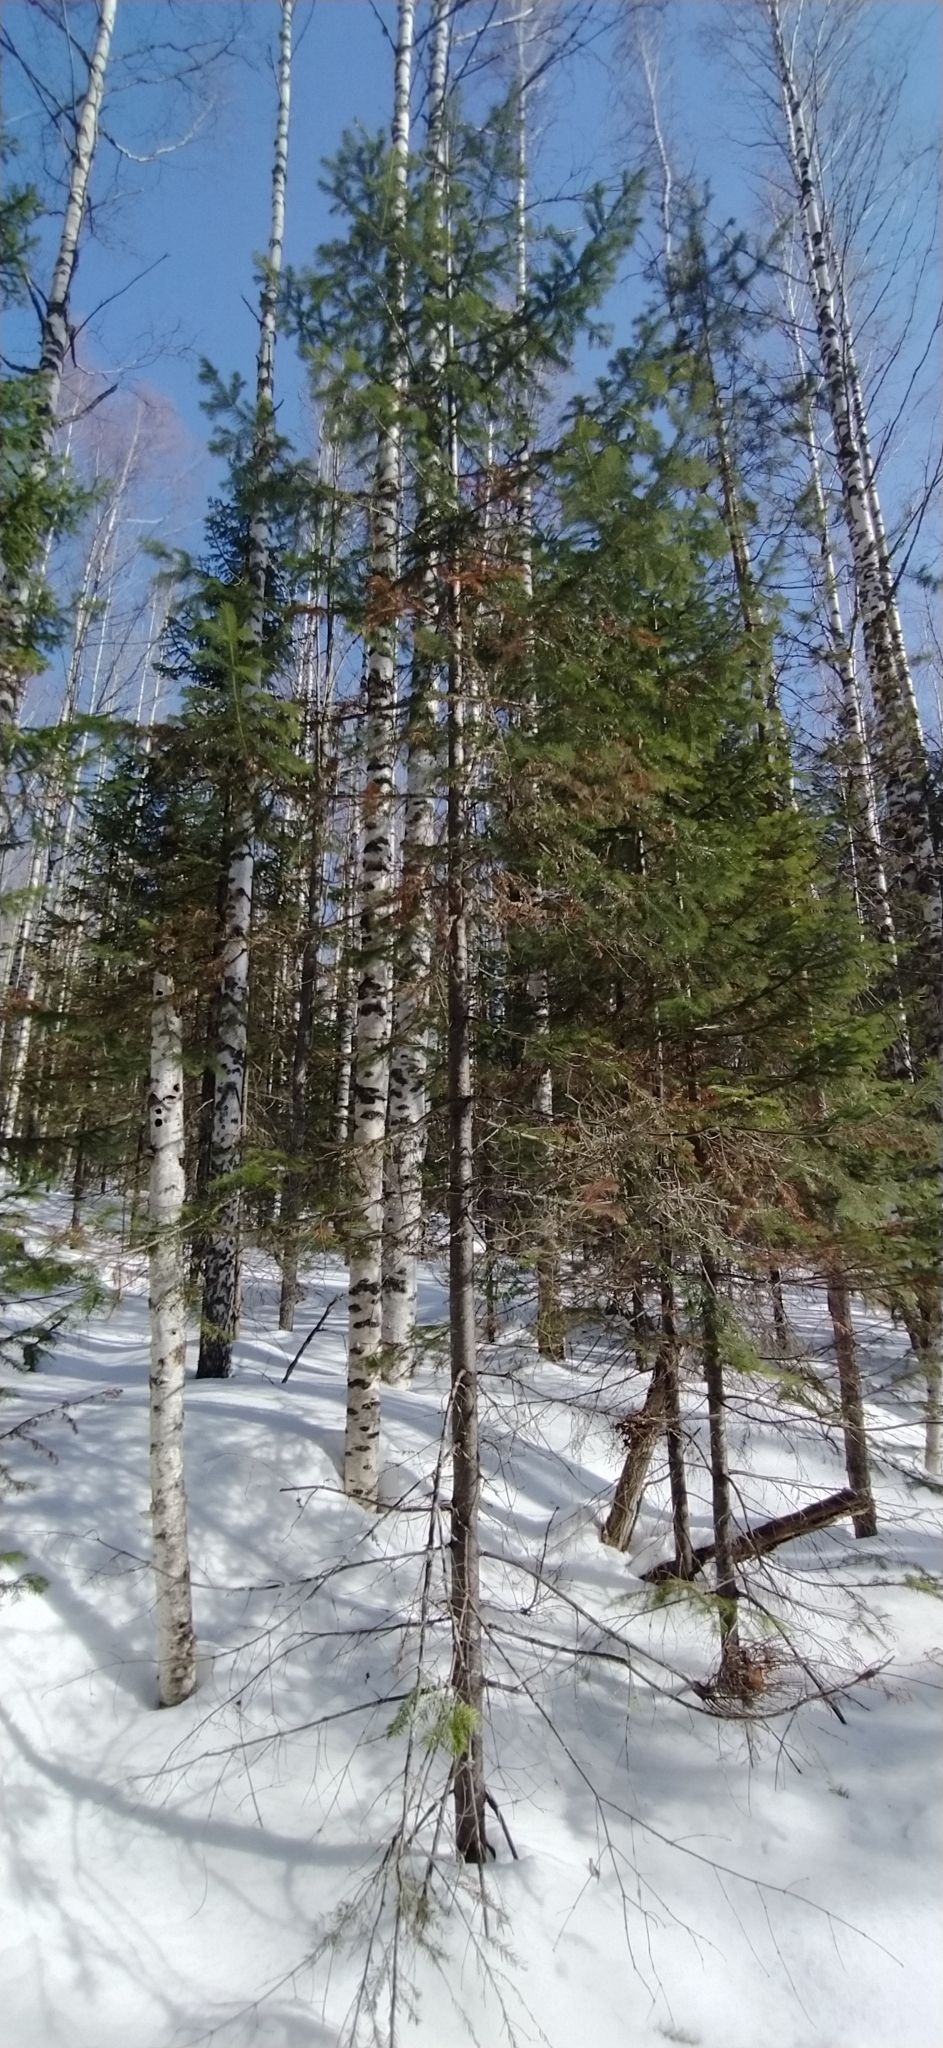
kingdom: Plantae
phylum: Tracheophyta
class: Pinopsida
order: Pinales
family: Pinaceae
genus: Abies
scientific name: Abies sibirica
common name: Siberian fir
